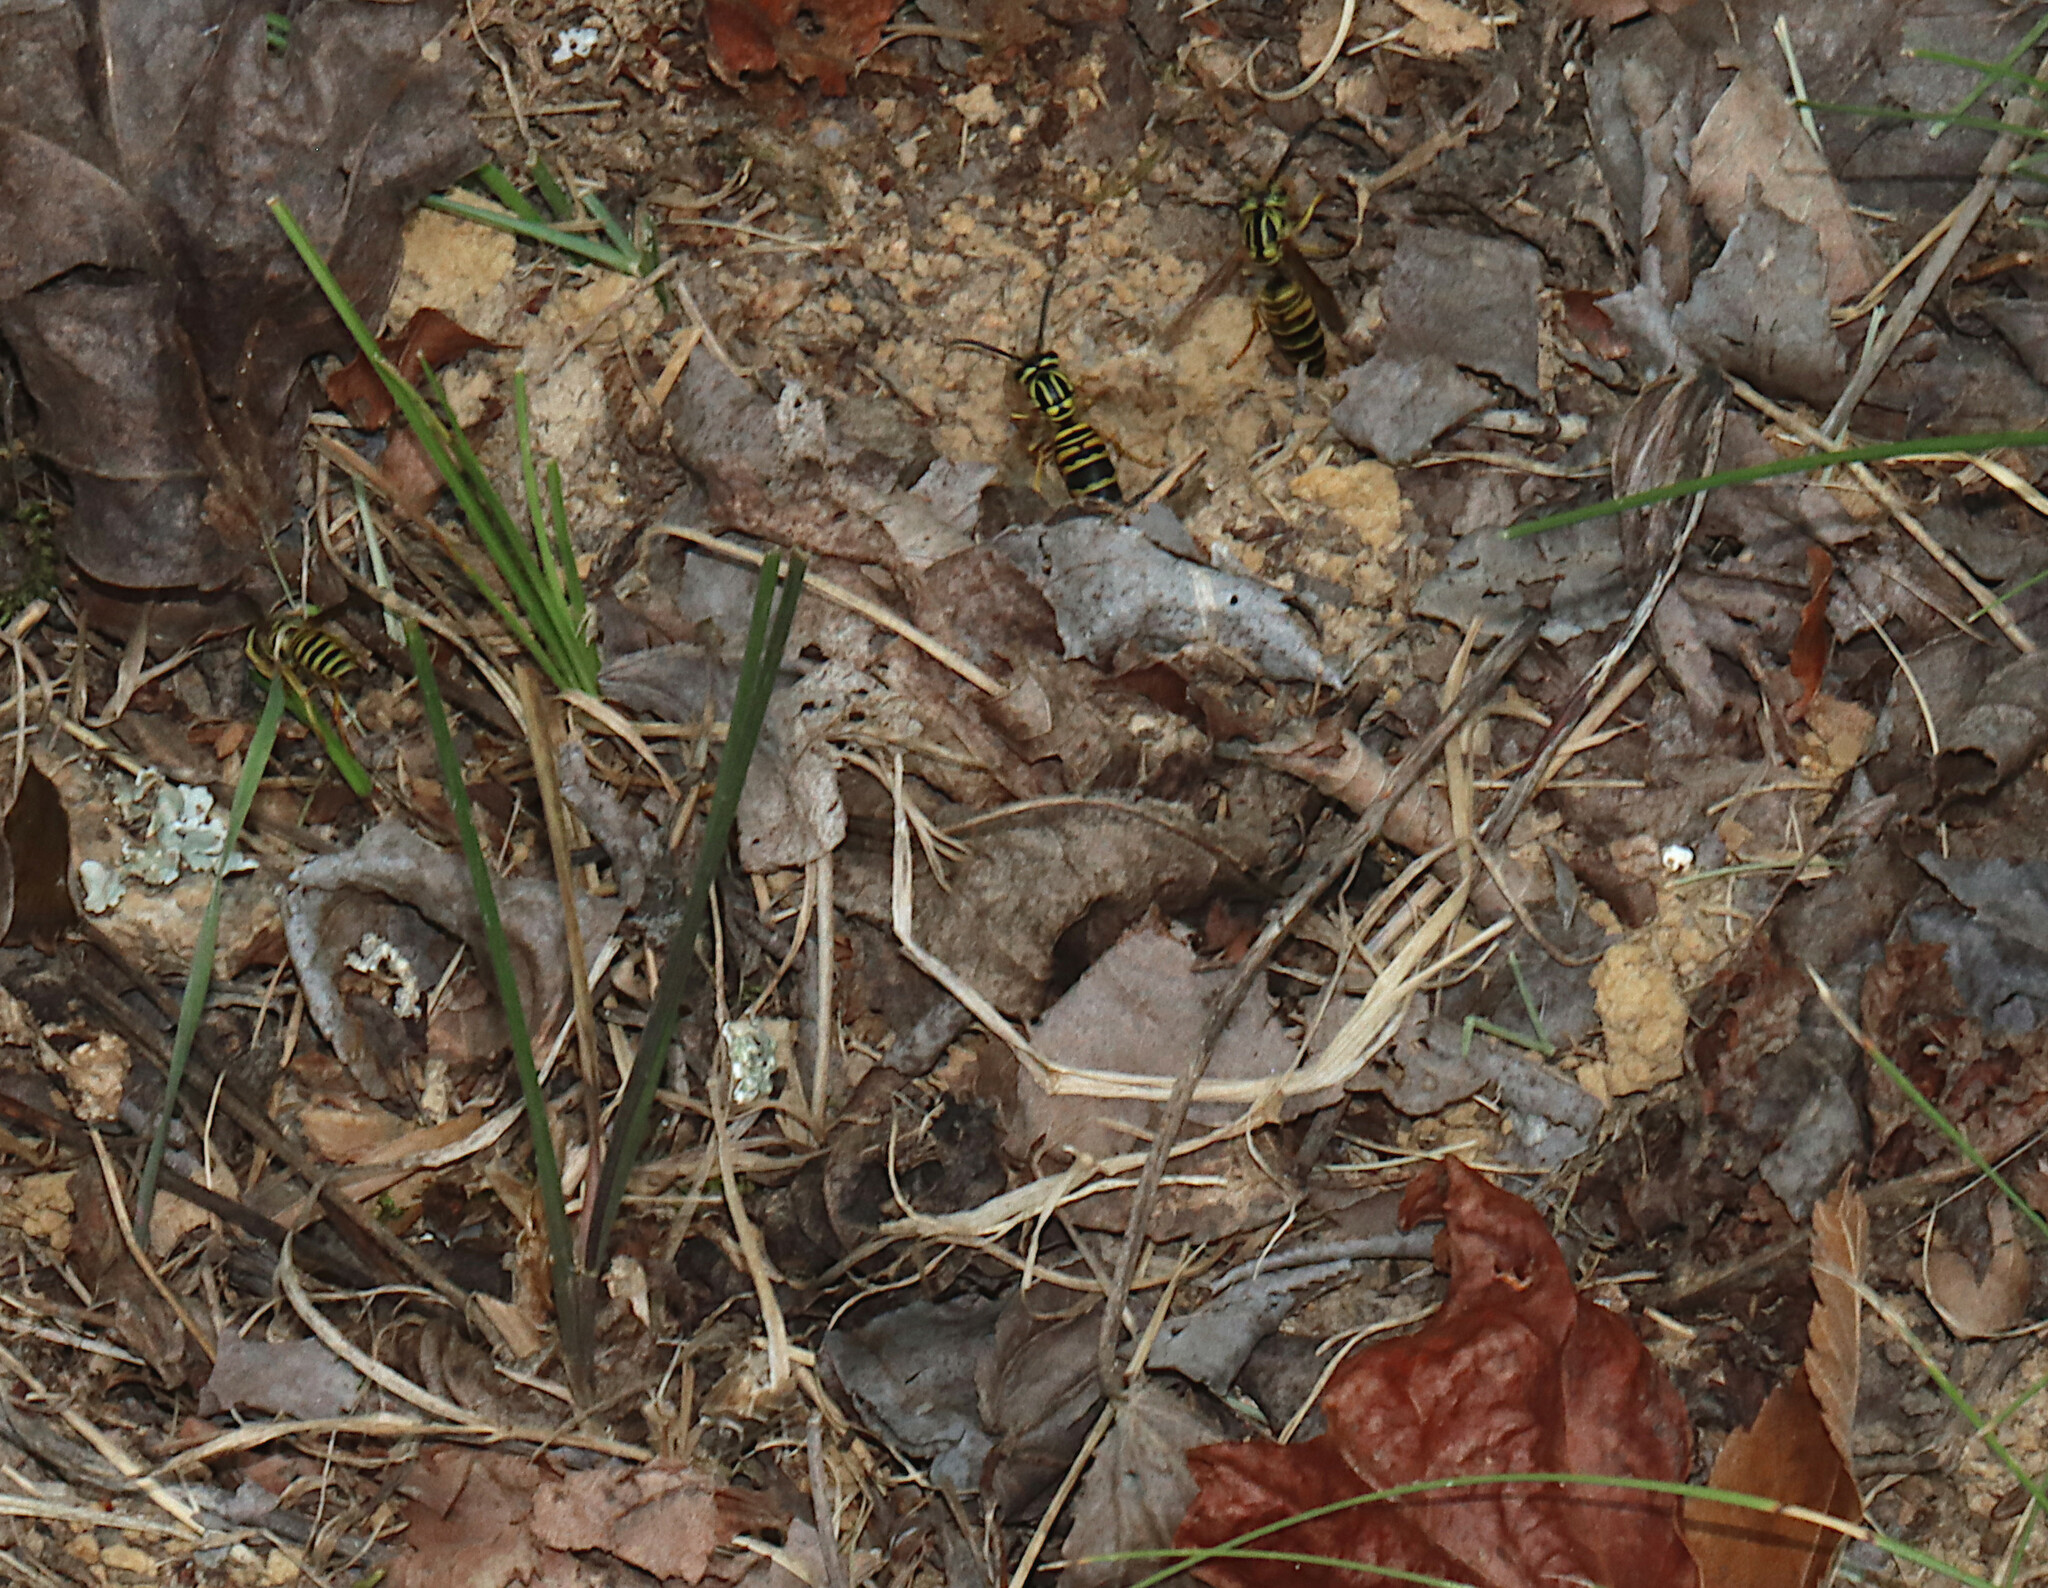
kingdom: Animalia
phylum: Arthropoda
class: Insecta
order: Hymenoptera
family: Vespidae
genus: Vespula
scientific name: Vespula squamosa
